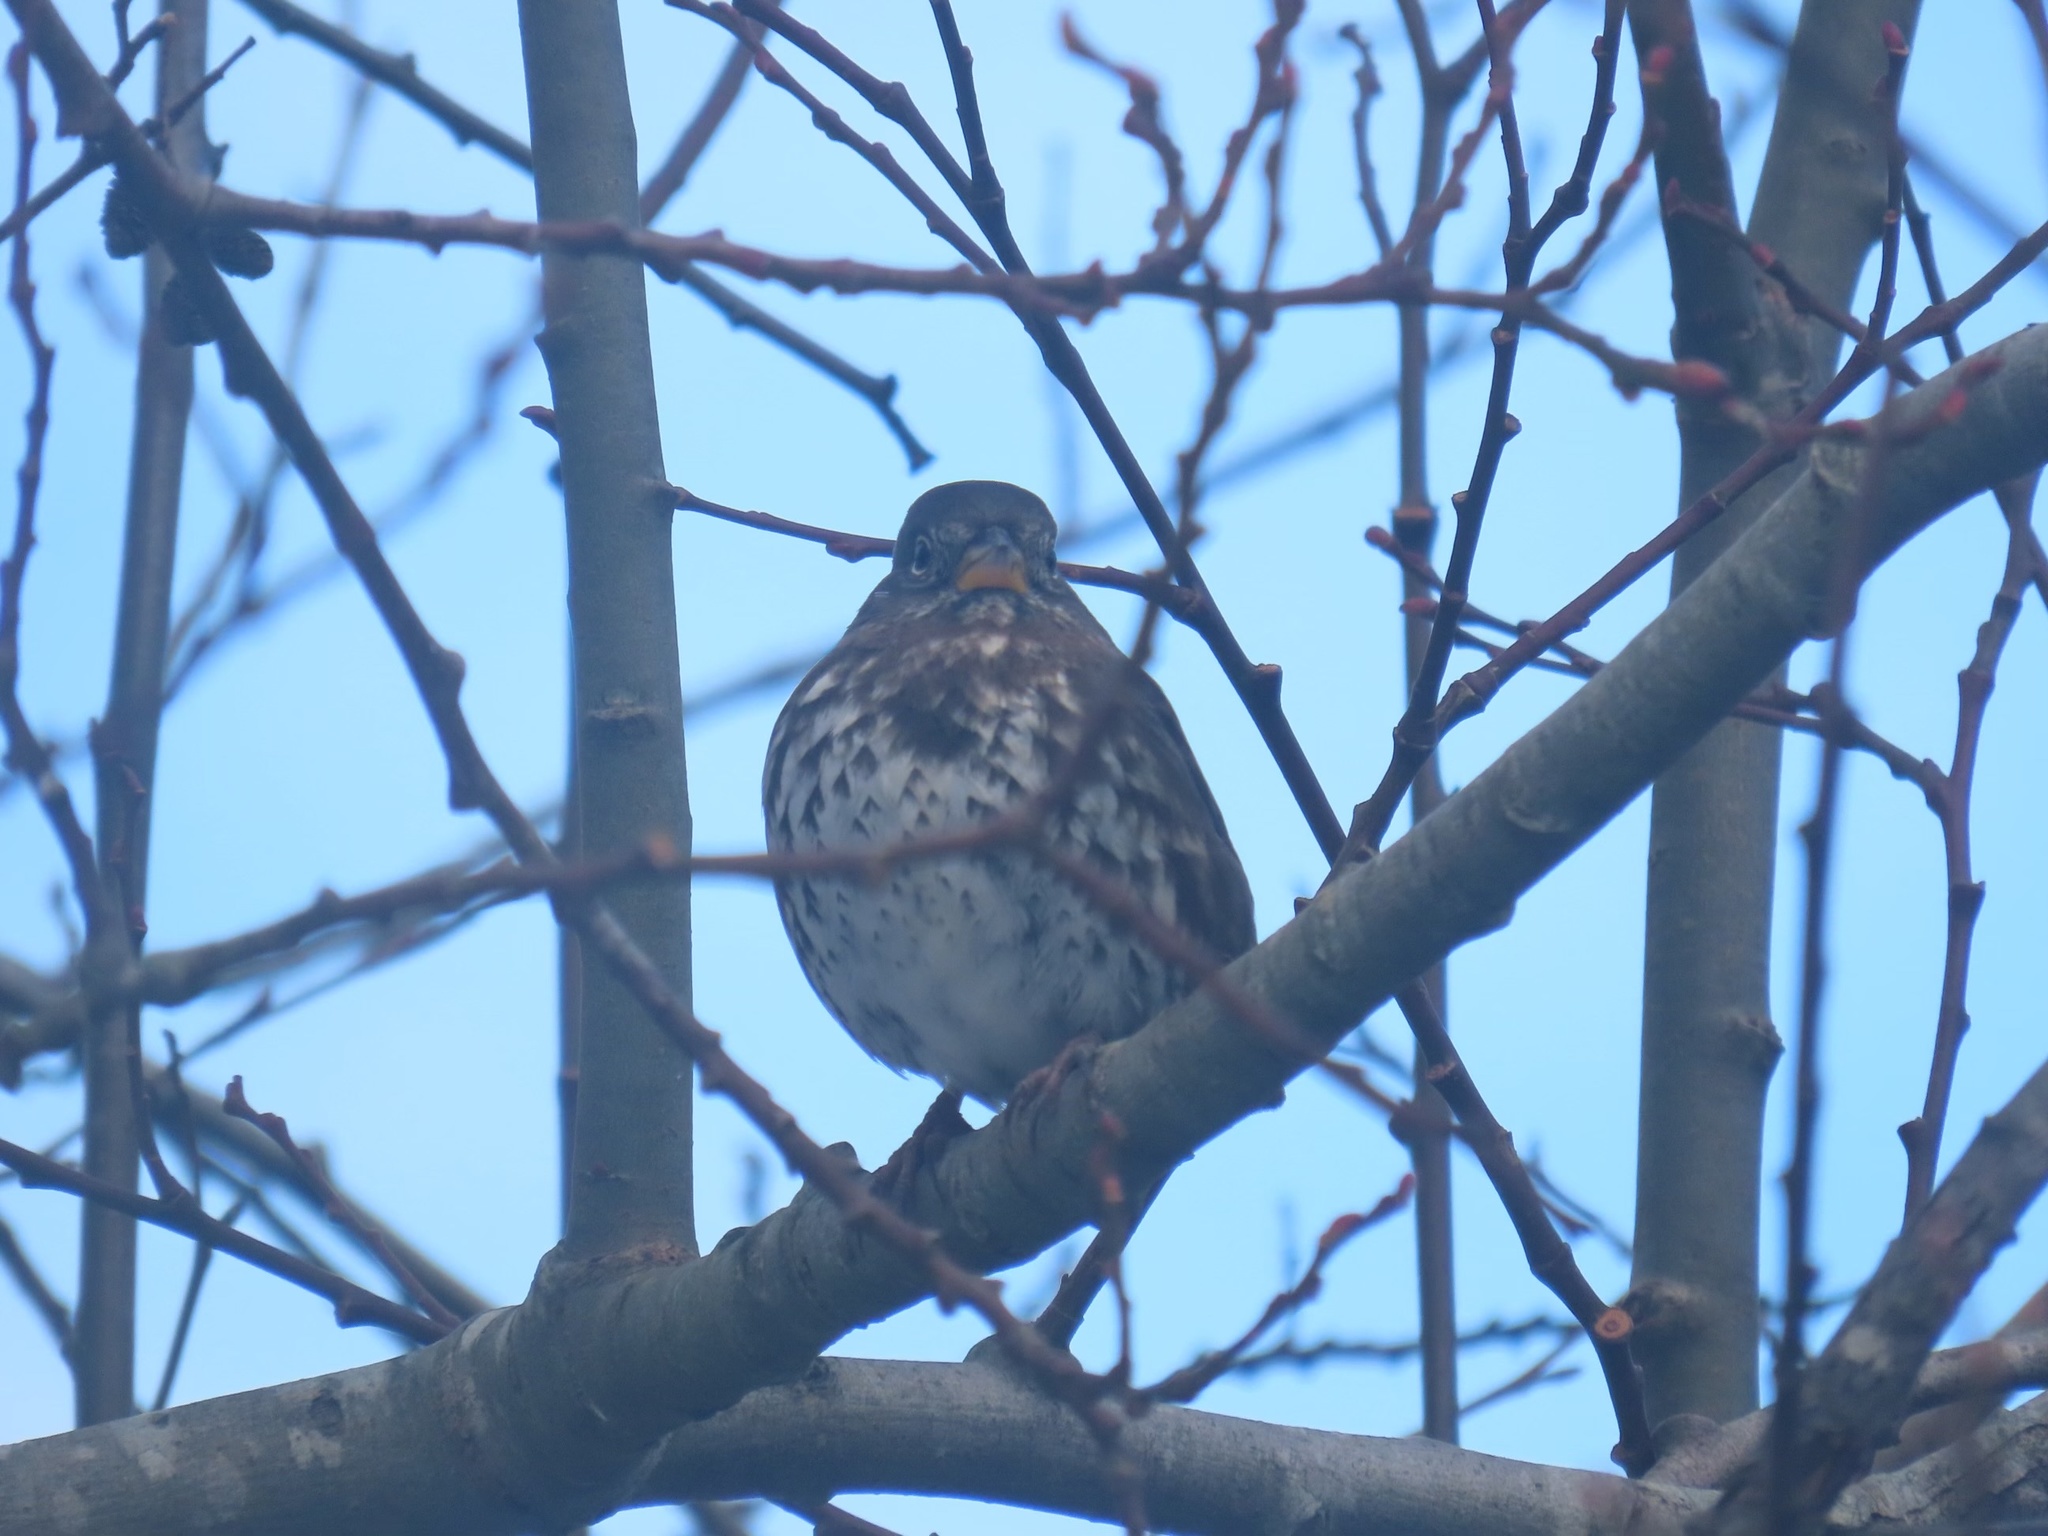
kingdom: Animalia
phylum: Chordata
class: Aves
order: Passeriformes
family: Passerellidae
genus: Passerella
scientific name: Passerella iliaca
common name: Fox sparrow
